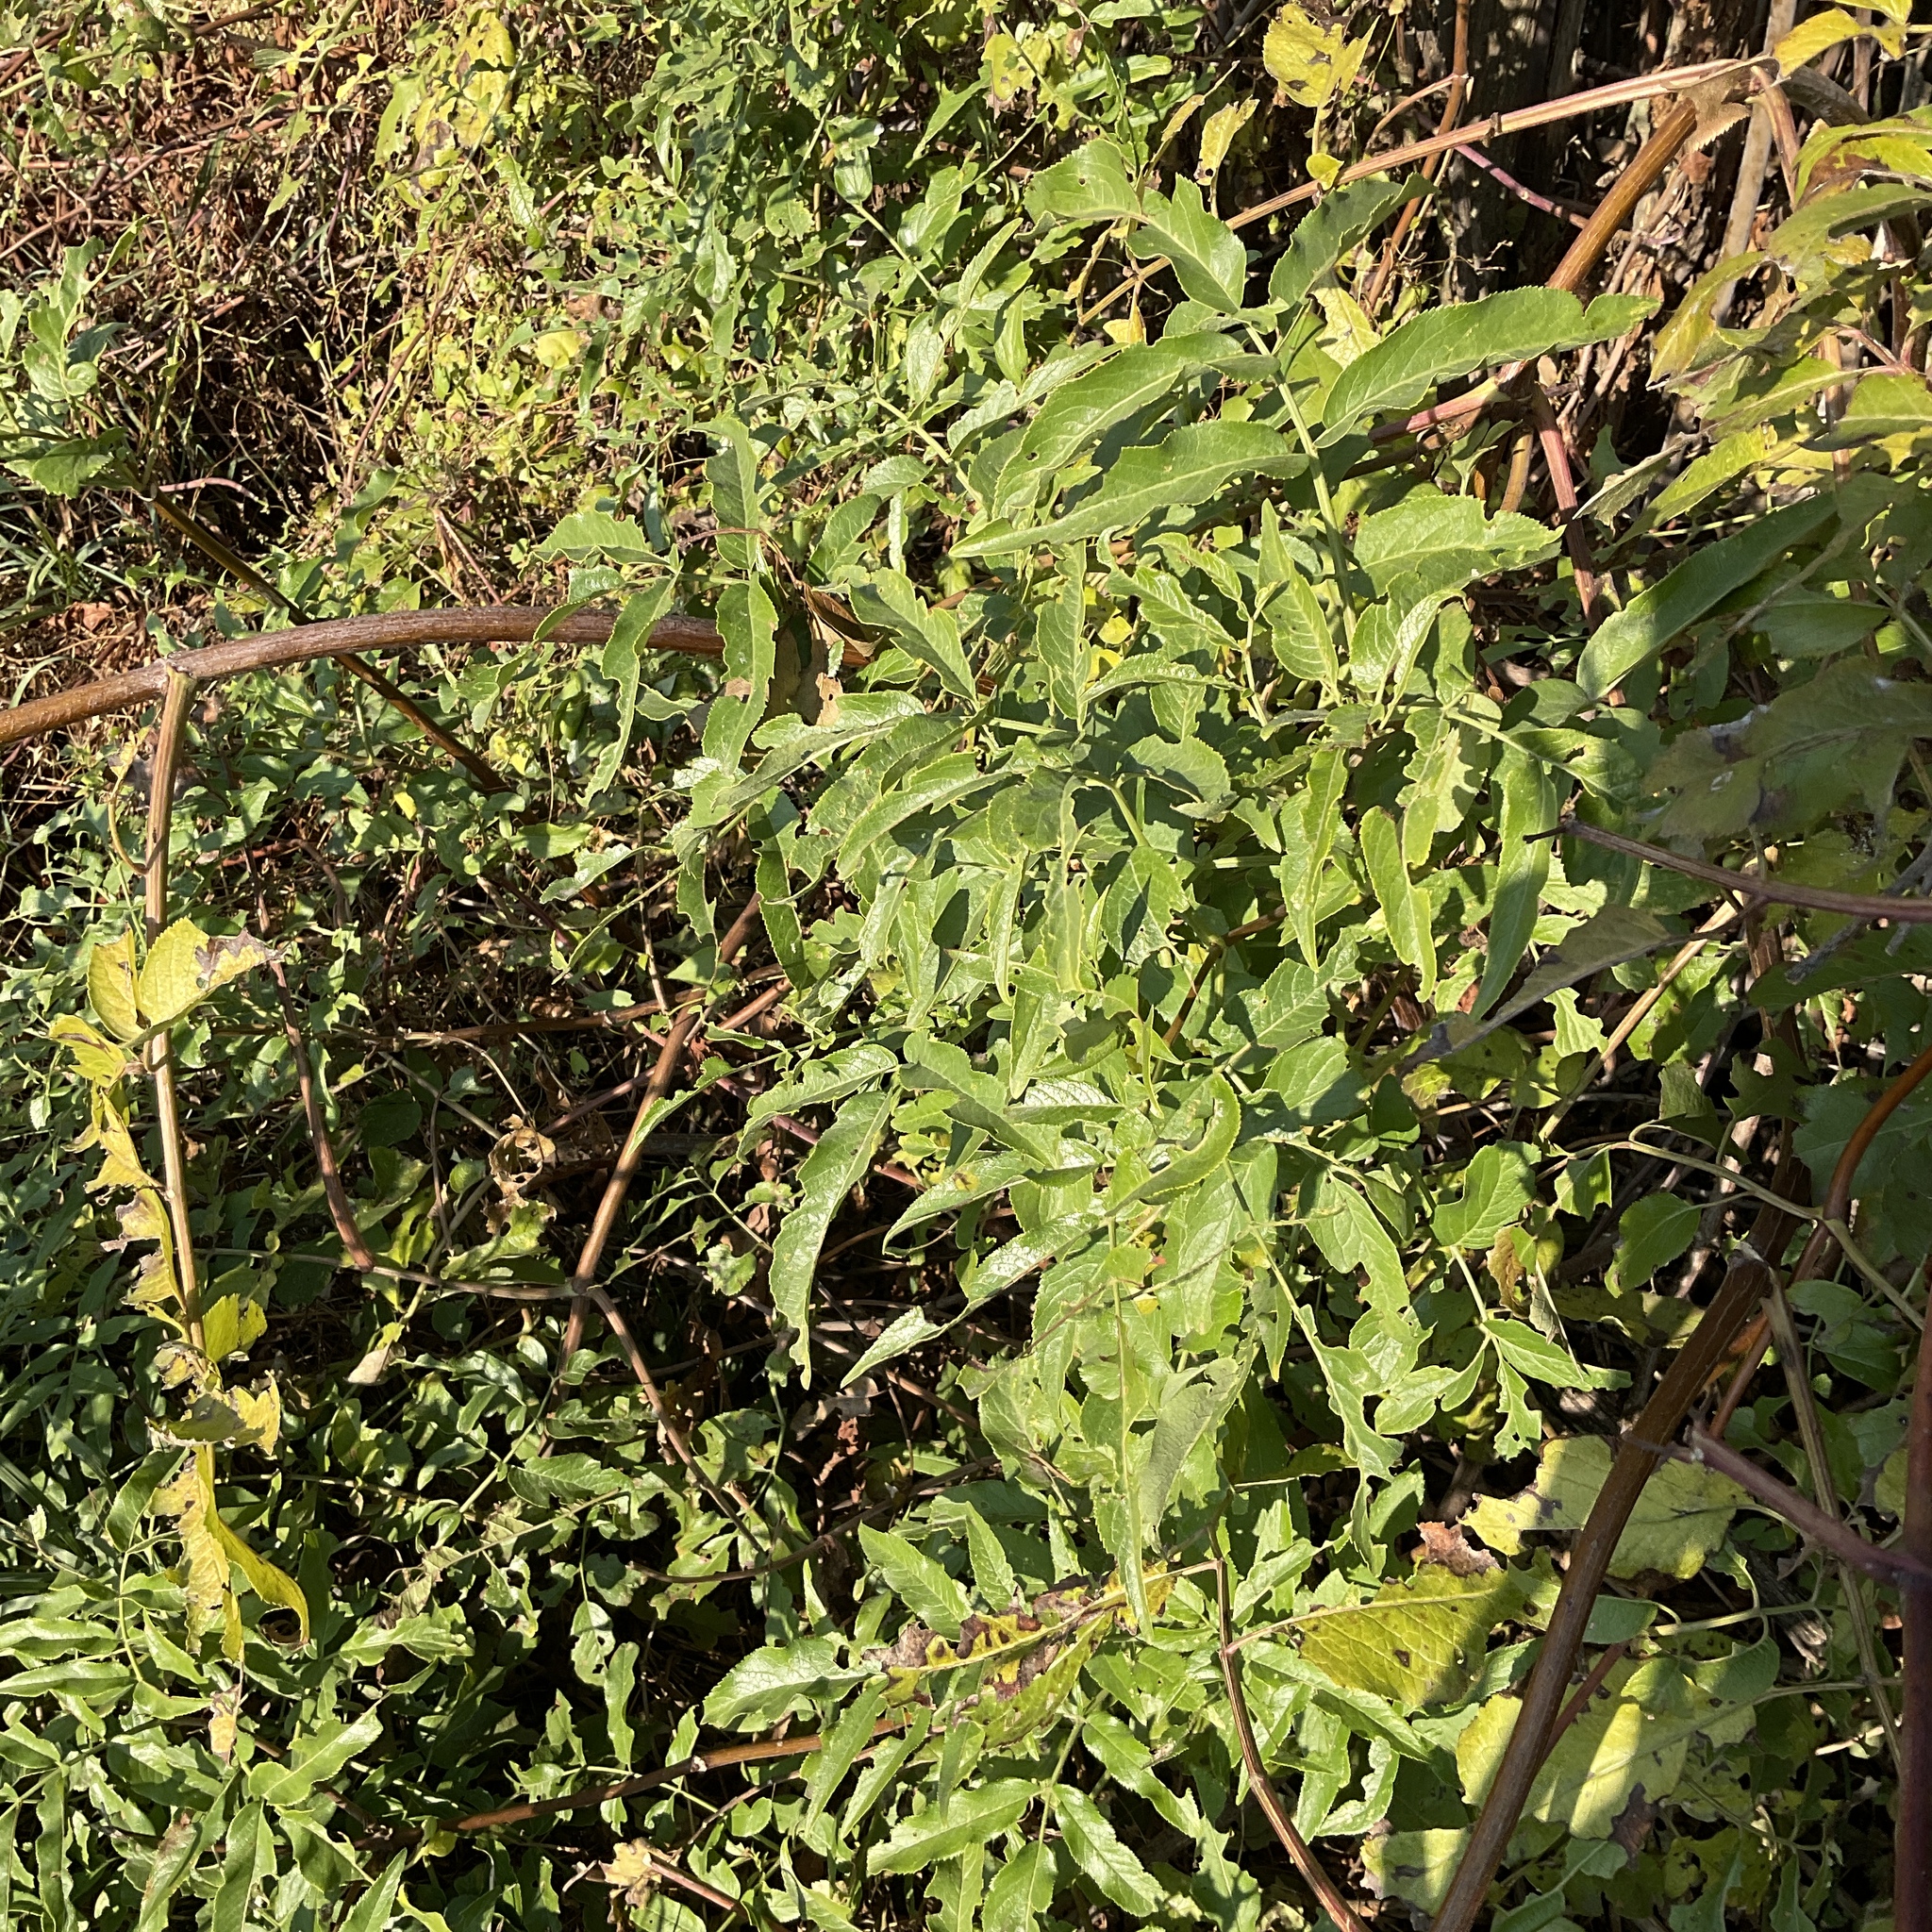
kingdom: Plantae
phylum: Tracheophyta
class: Magnoliopsida
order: Dipsacales
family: Viburnaceae
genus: Sambucus
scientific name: Sambucus cerulea
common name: Blue elder
